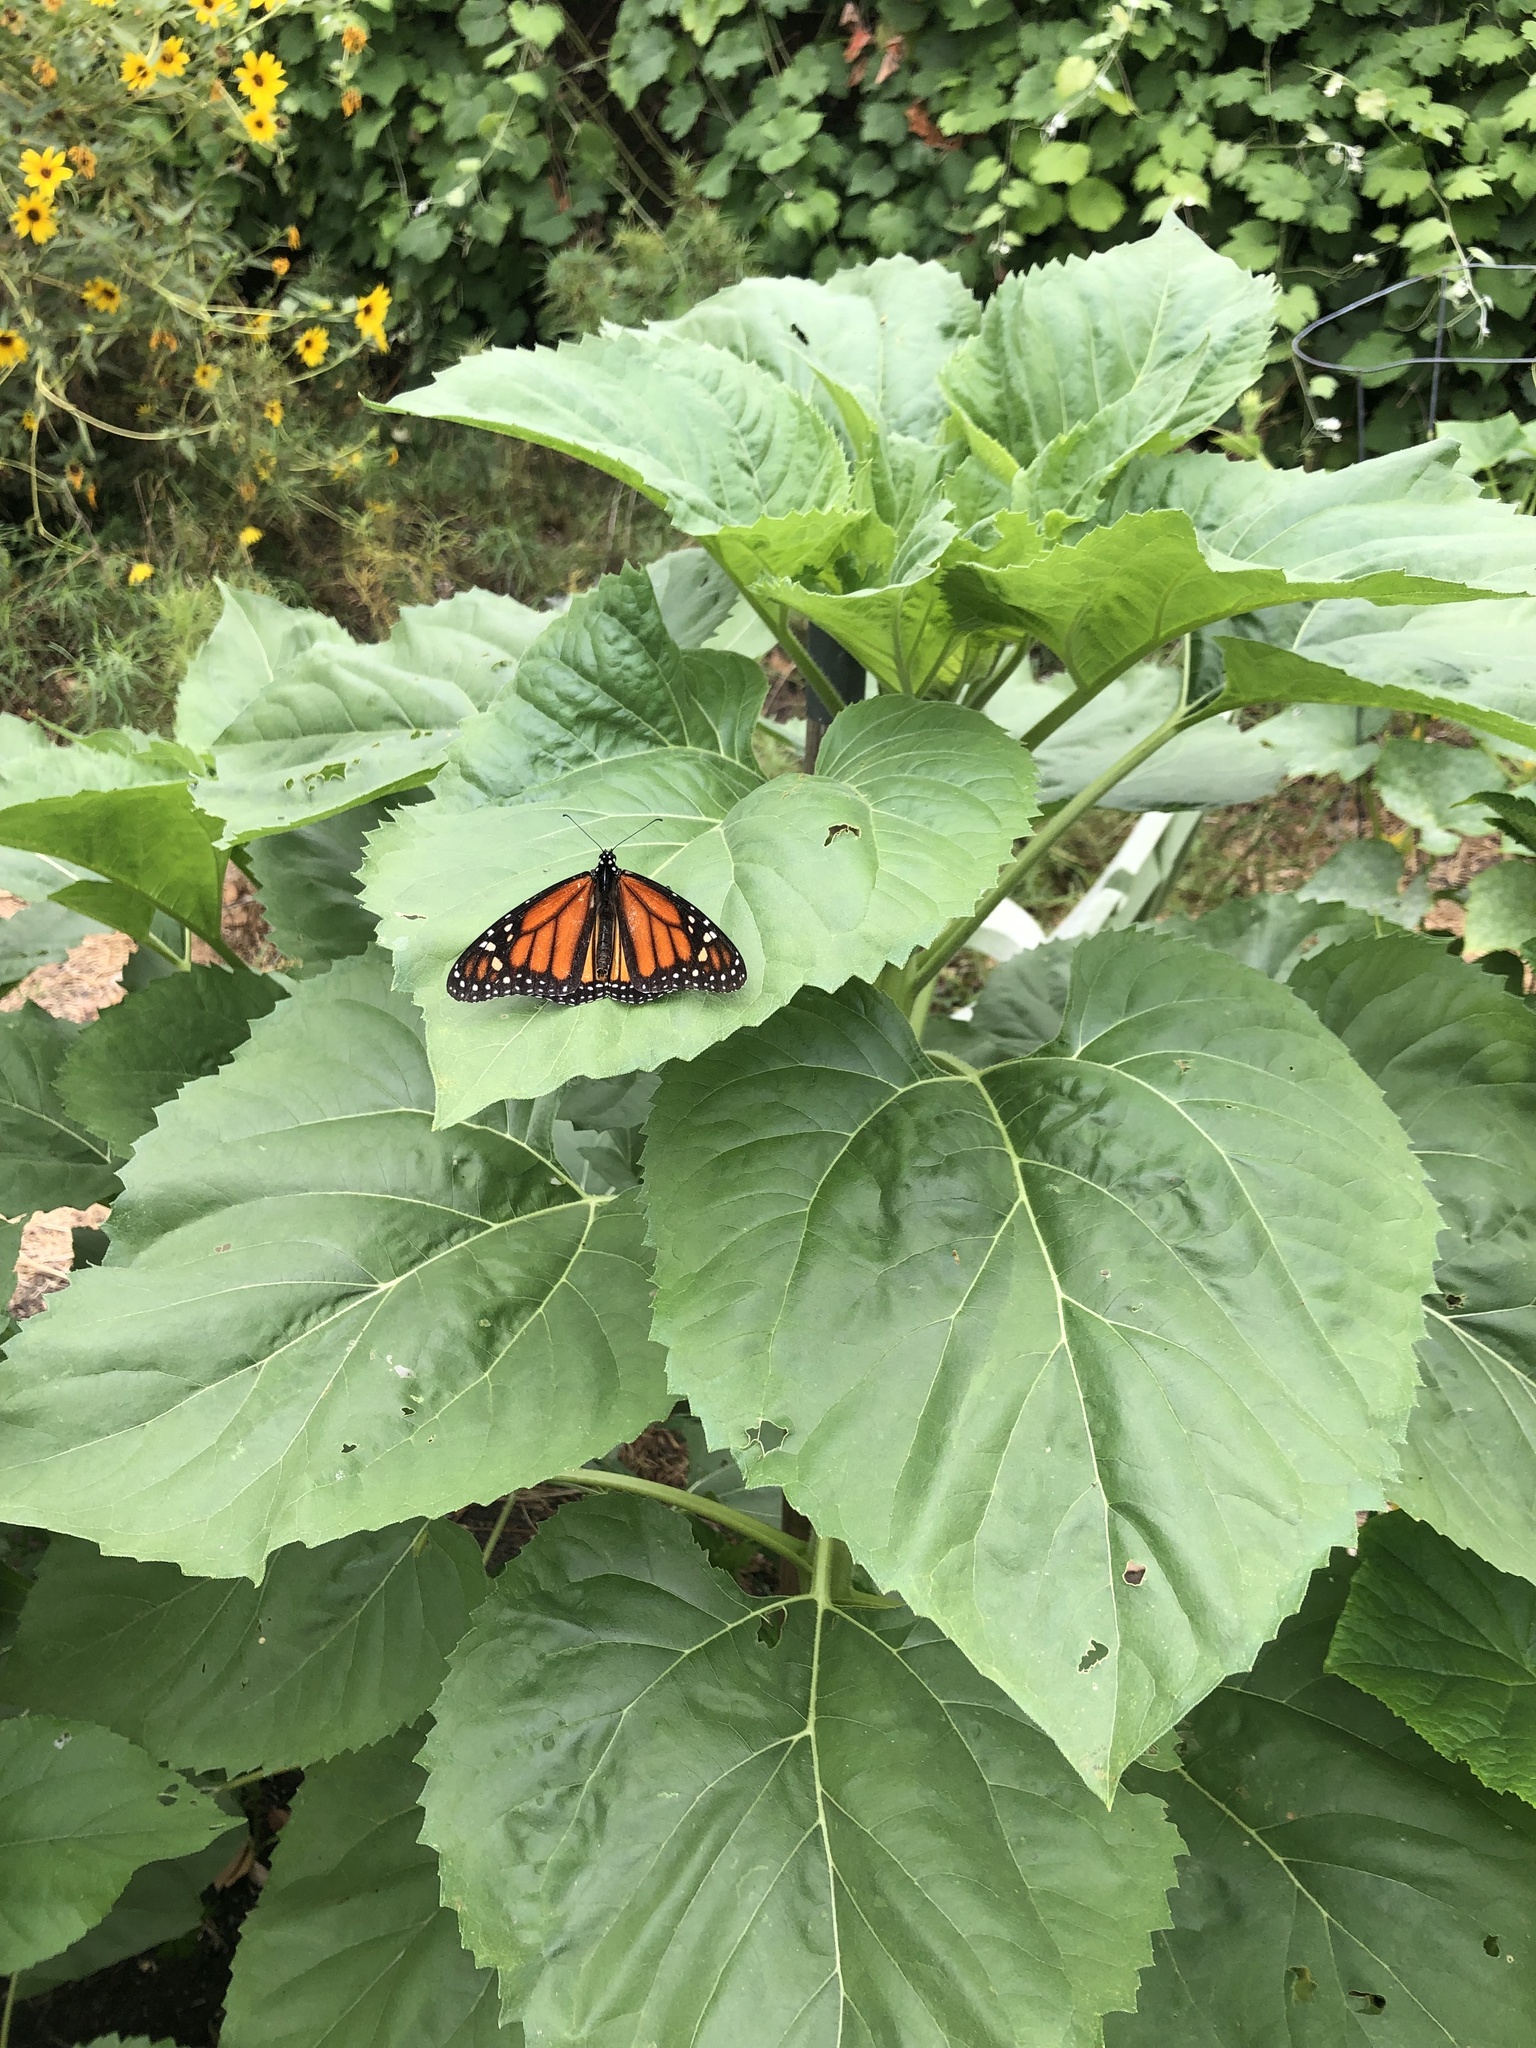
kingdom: Animalia
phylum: Arthropoda
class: Insecta
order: Lepidoptera
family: Nymphalidae
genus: Danaus
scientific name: Danaus plexippus
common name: Monarch
